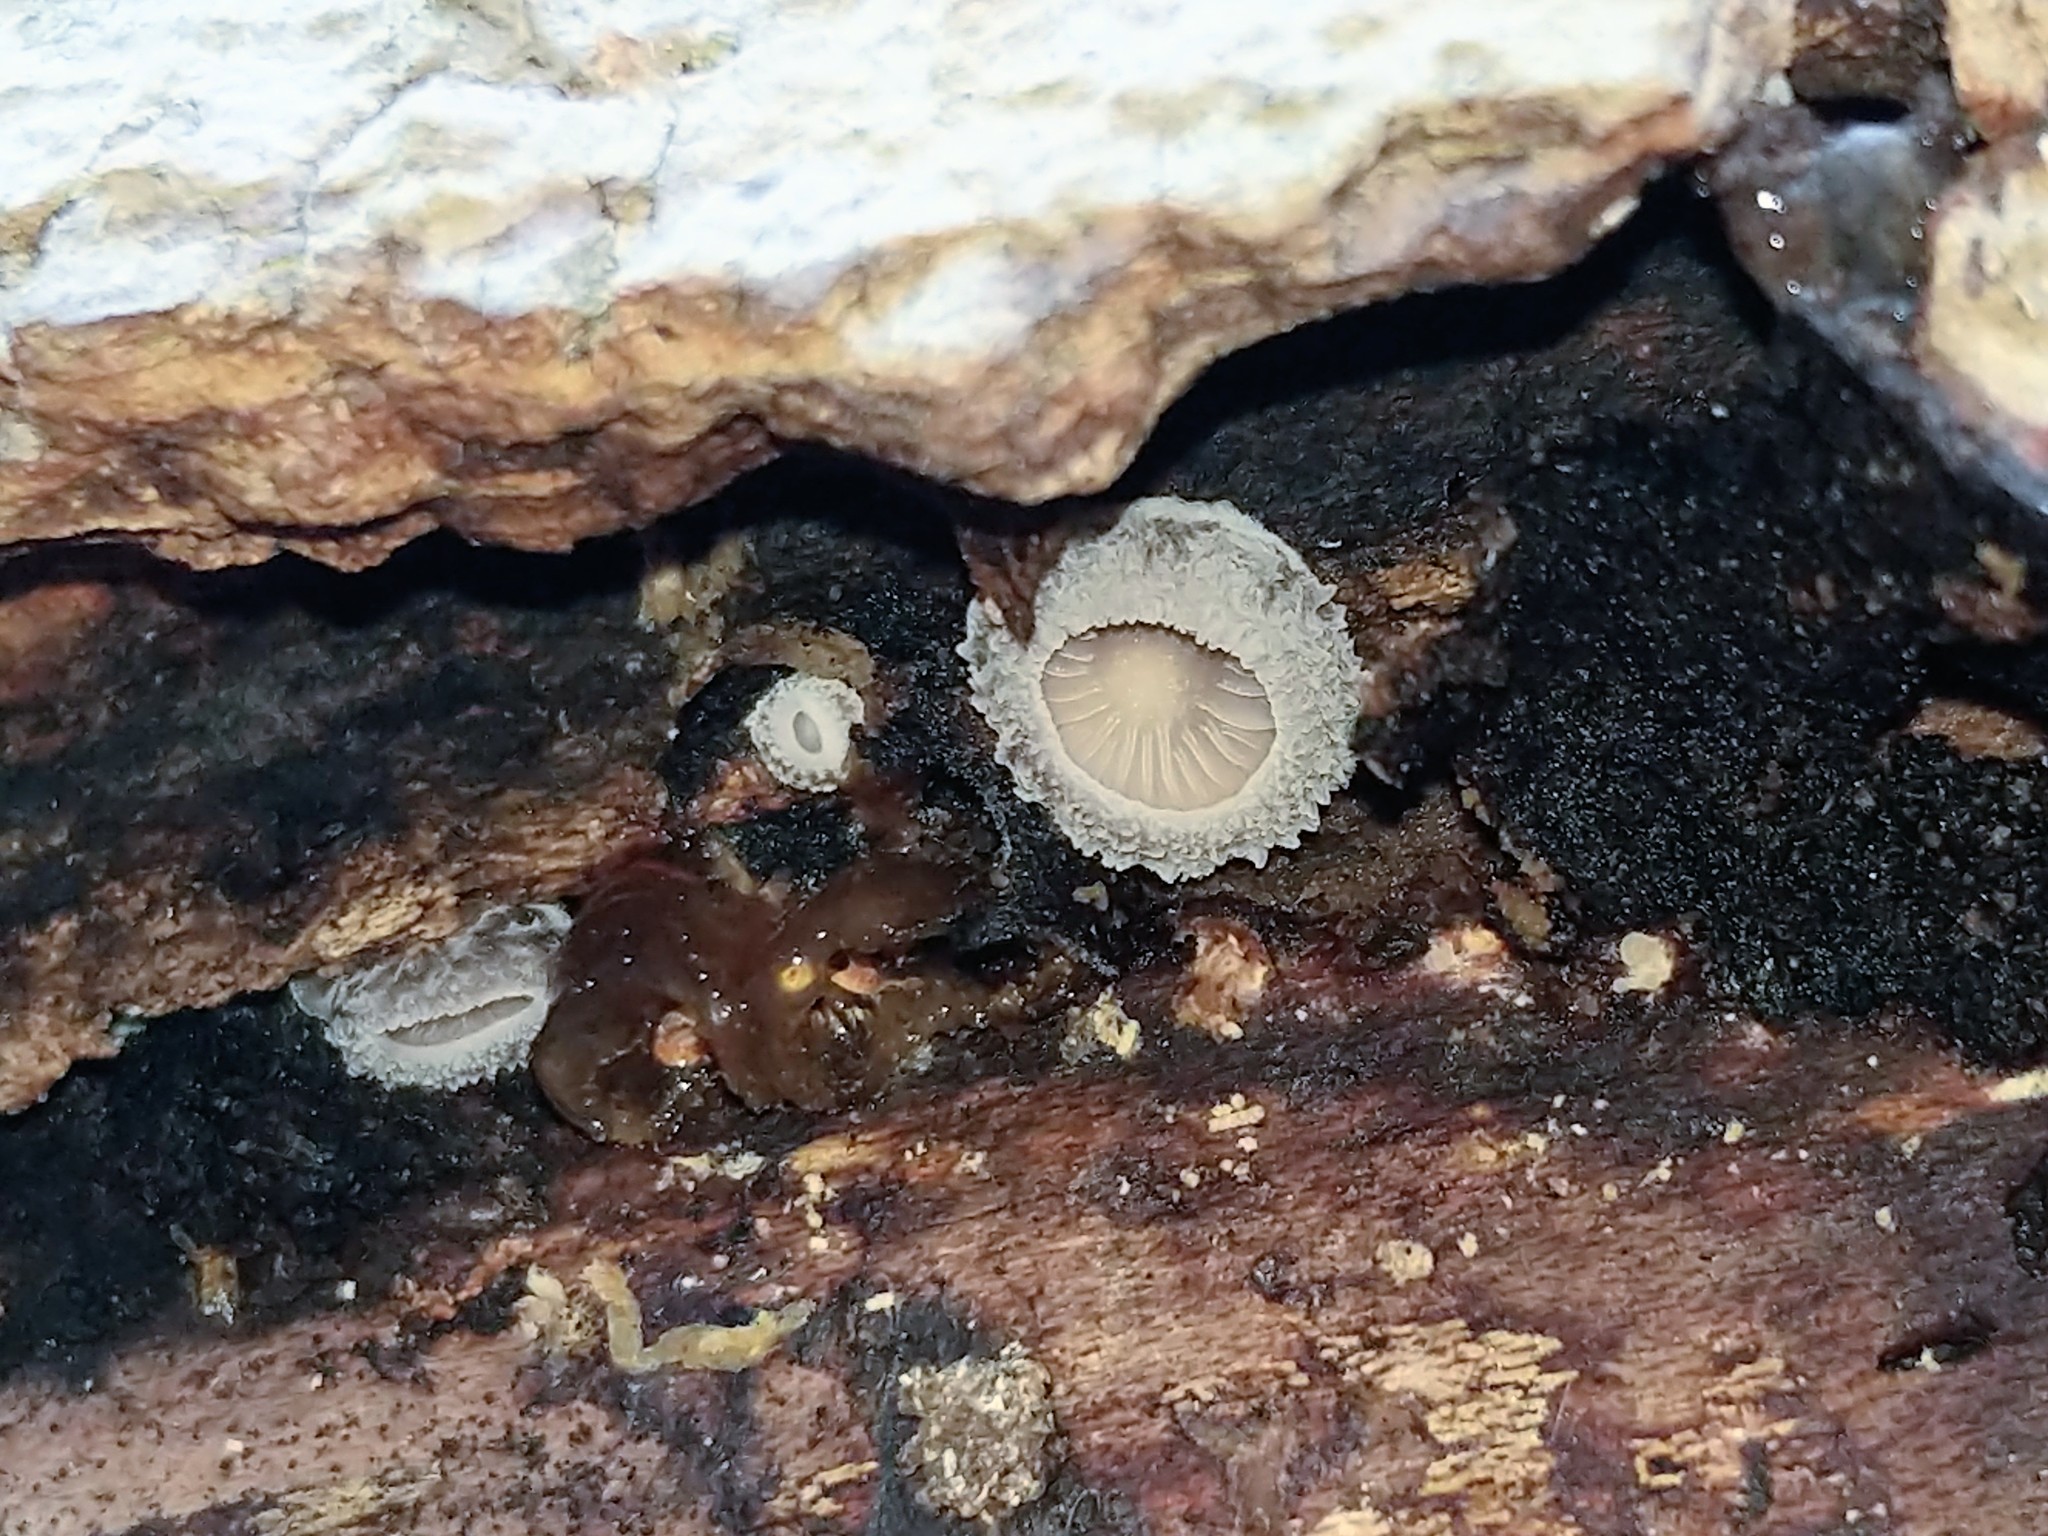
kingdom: Fungi
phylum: Basidiomycota
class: Agaricomycetes
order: Agaricales
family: Pleurotaceae
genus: Hohenbuehelia
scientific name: Hohenbuehelia mastrucata
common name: Woolly oyster
